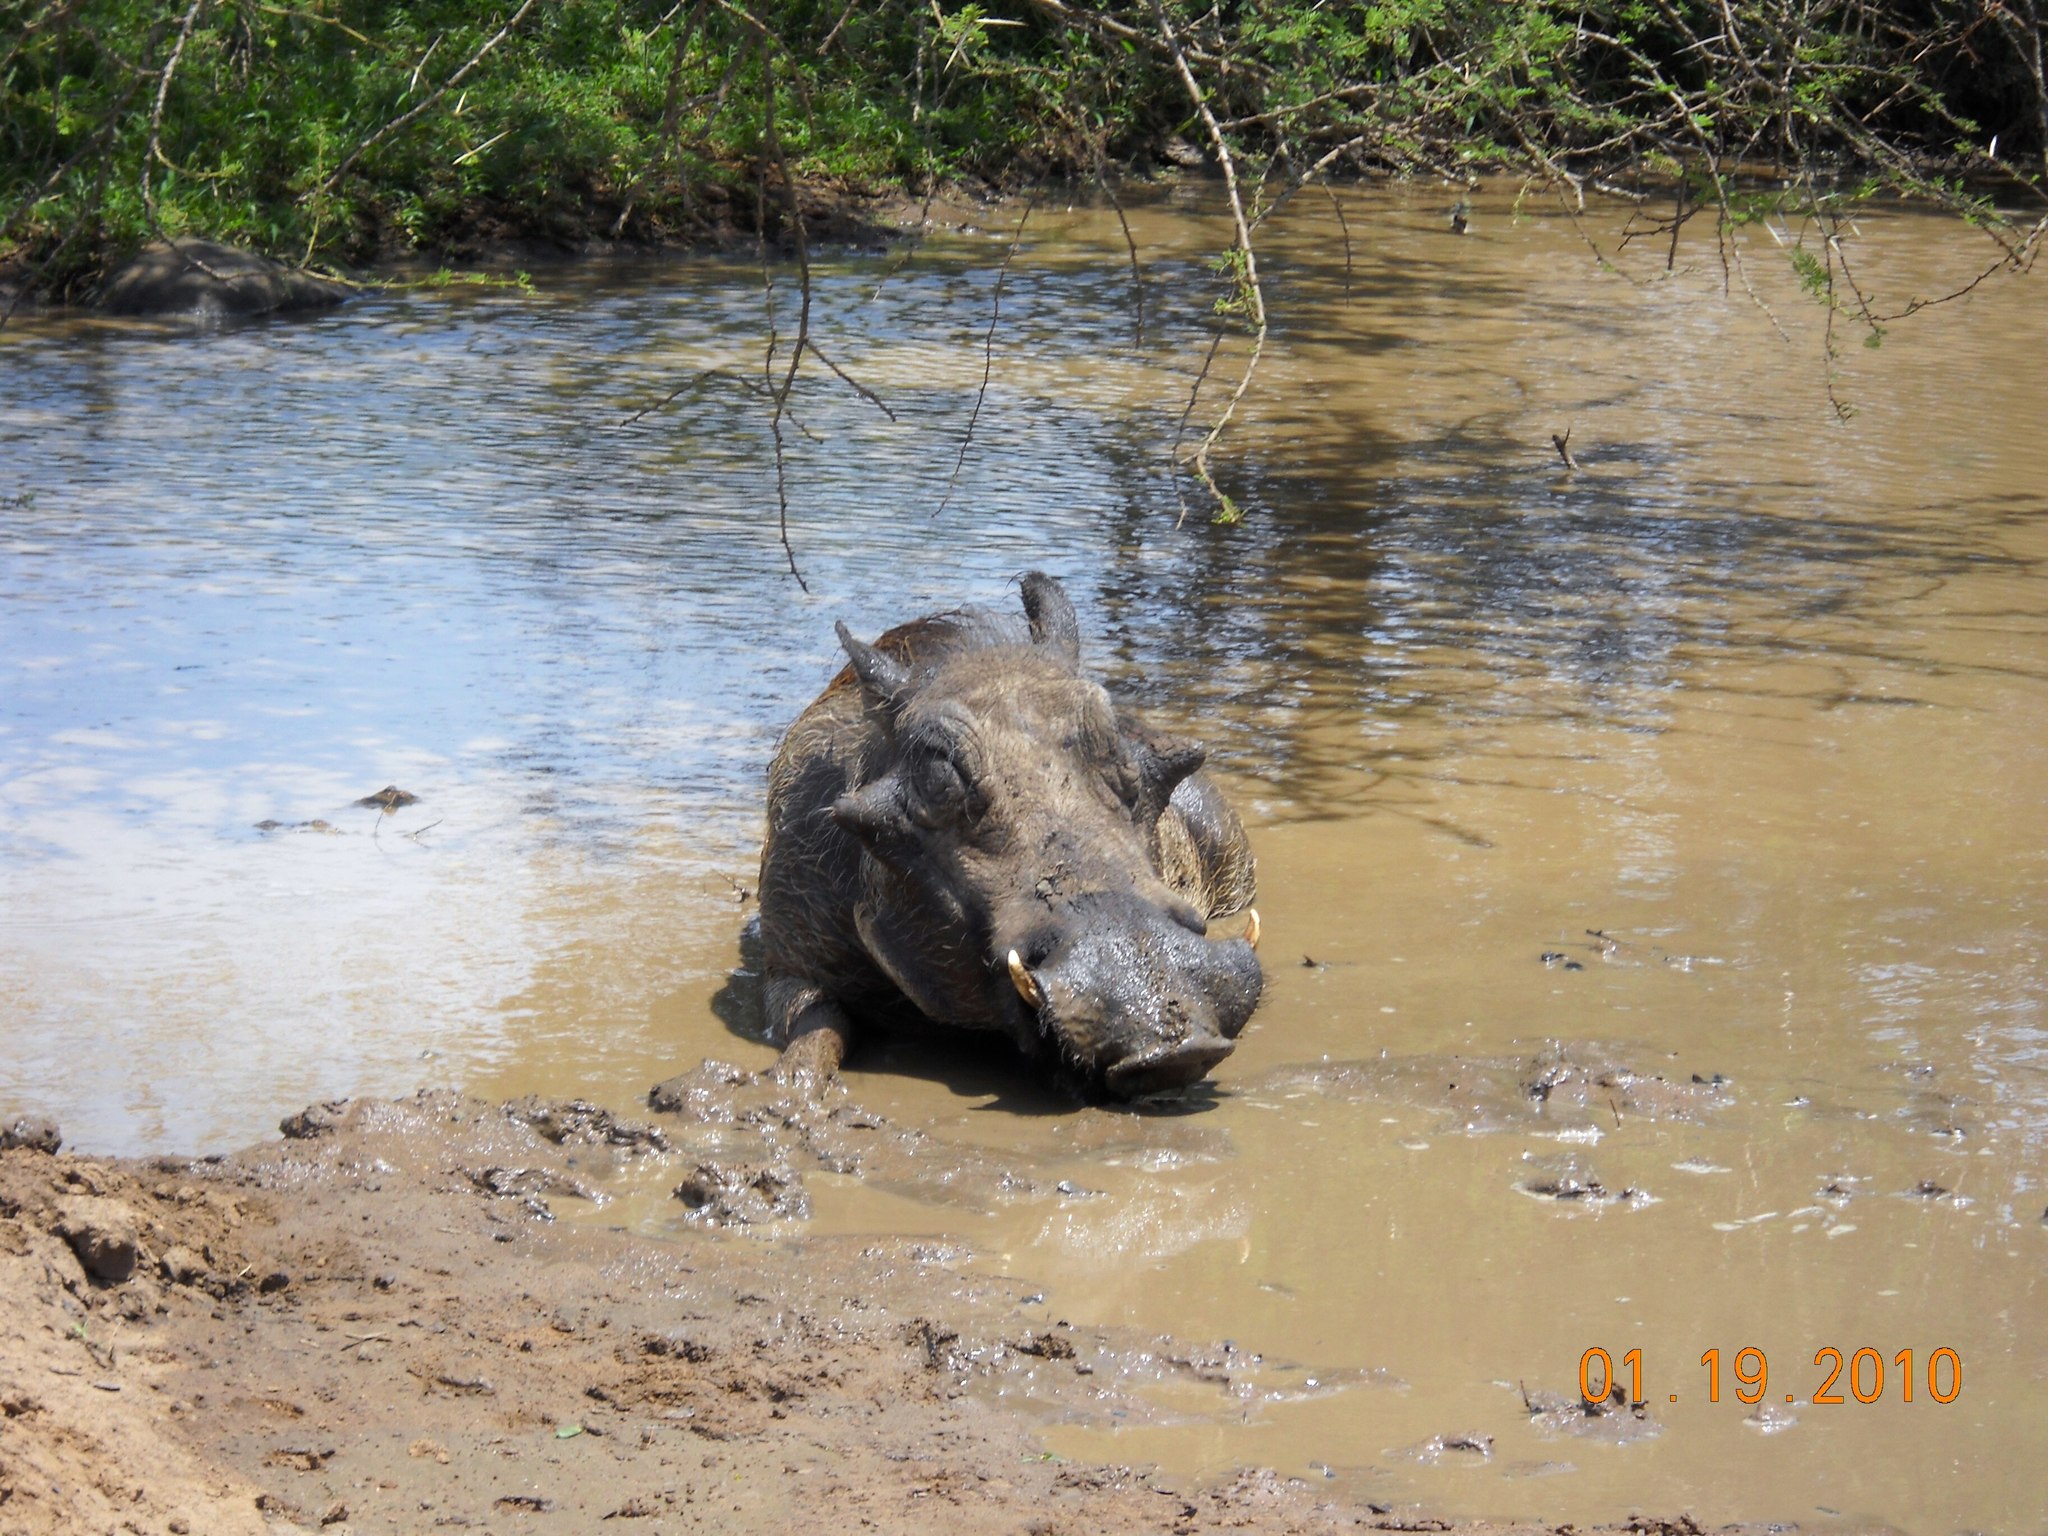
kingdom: Animalia
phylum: Chordata
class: Mammalia
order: Artiodactyla
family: Suidae
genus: Phacochoerus
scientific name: Phacochoerus africanus
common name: Common warthog
